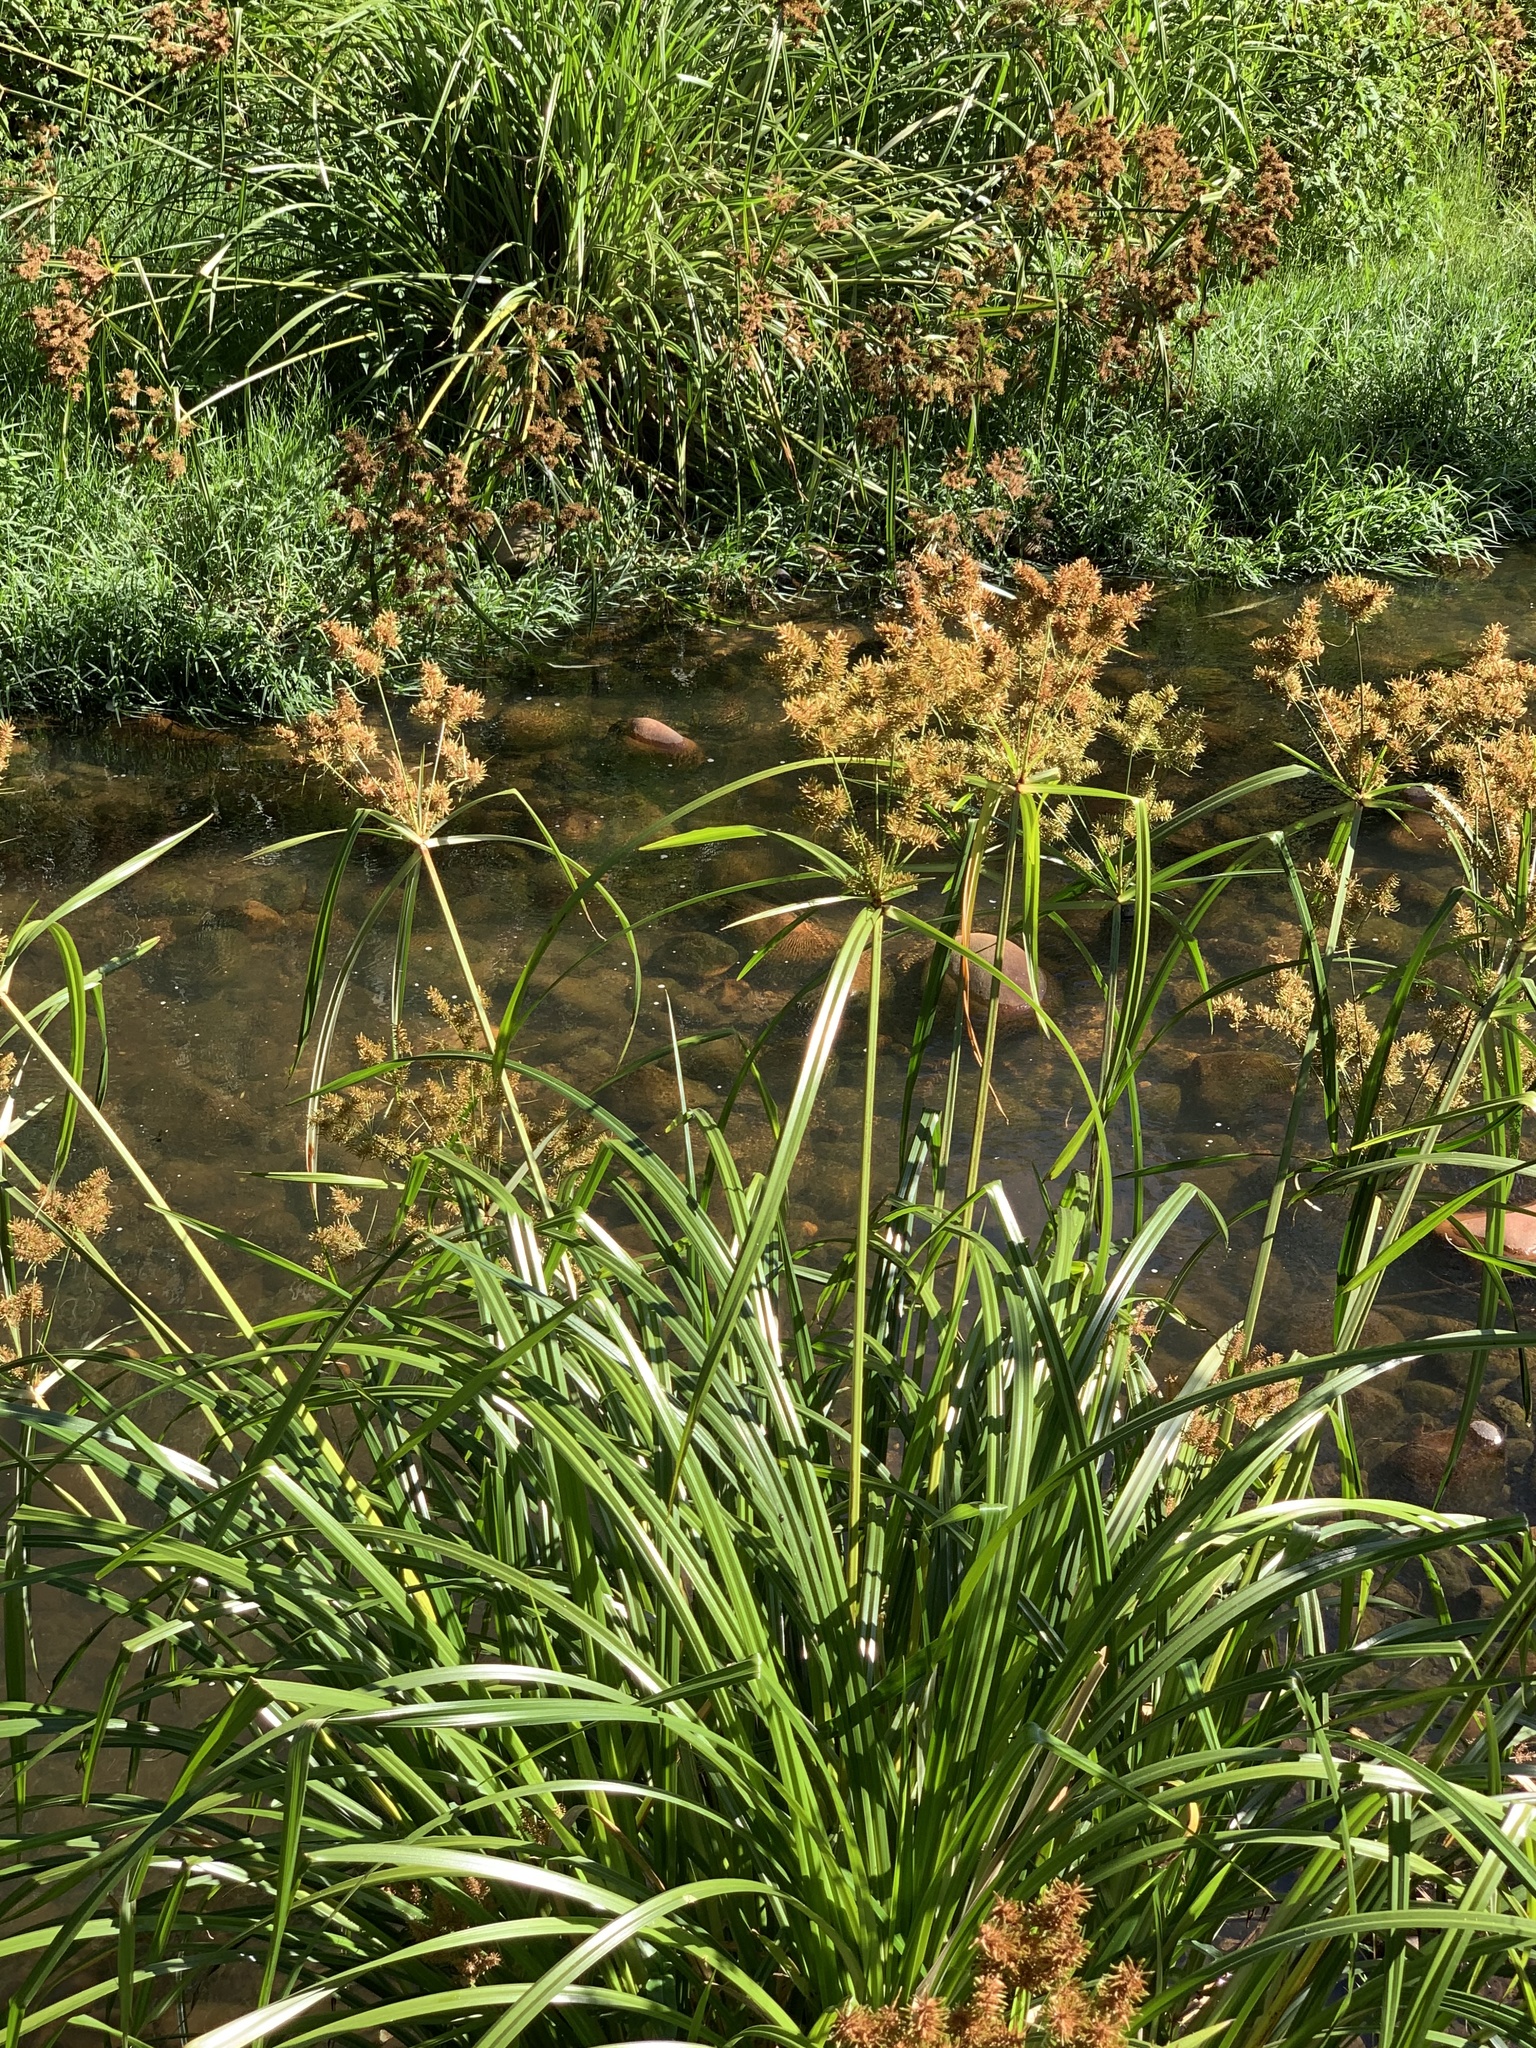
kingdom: Plantae
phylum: Tracheophyta
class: Liliopsida
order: Poales
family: Cyperaceae
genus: Cyperus
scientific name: Cyperus dives
